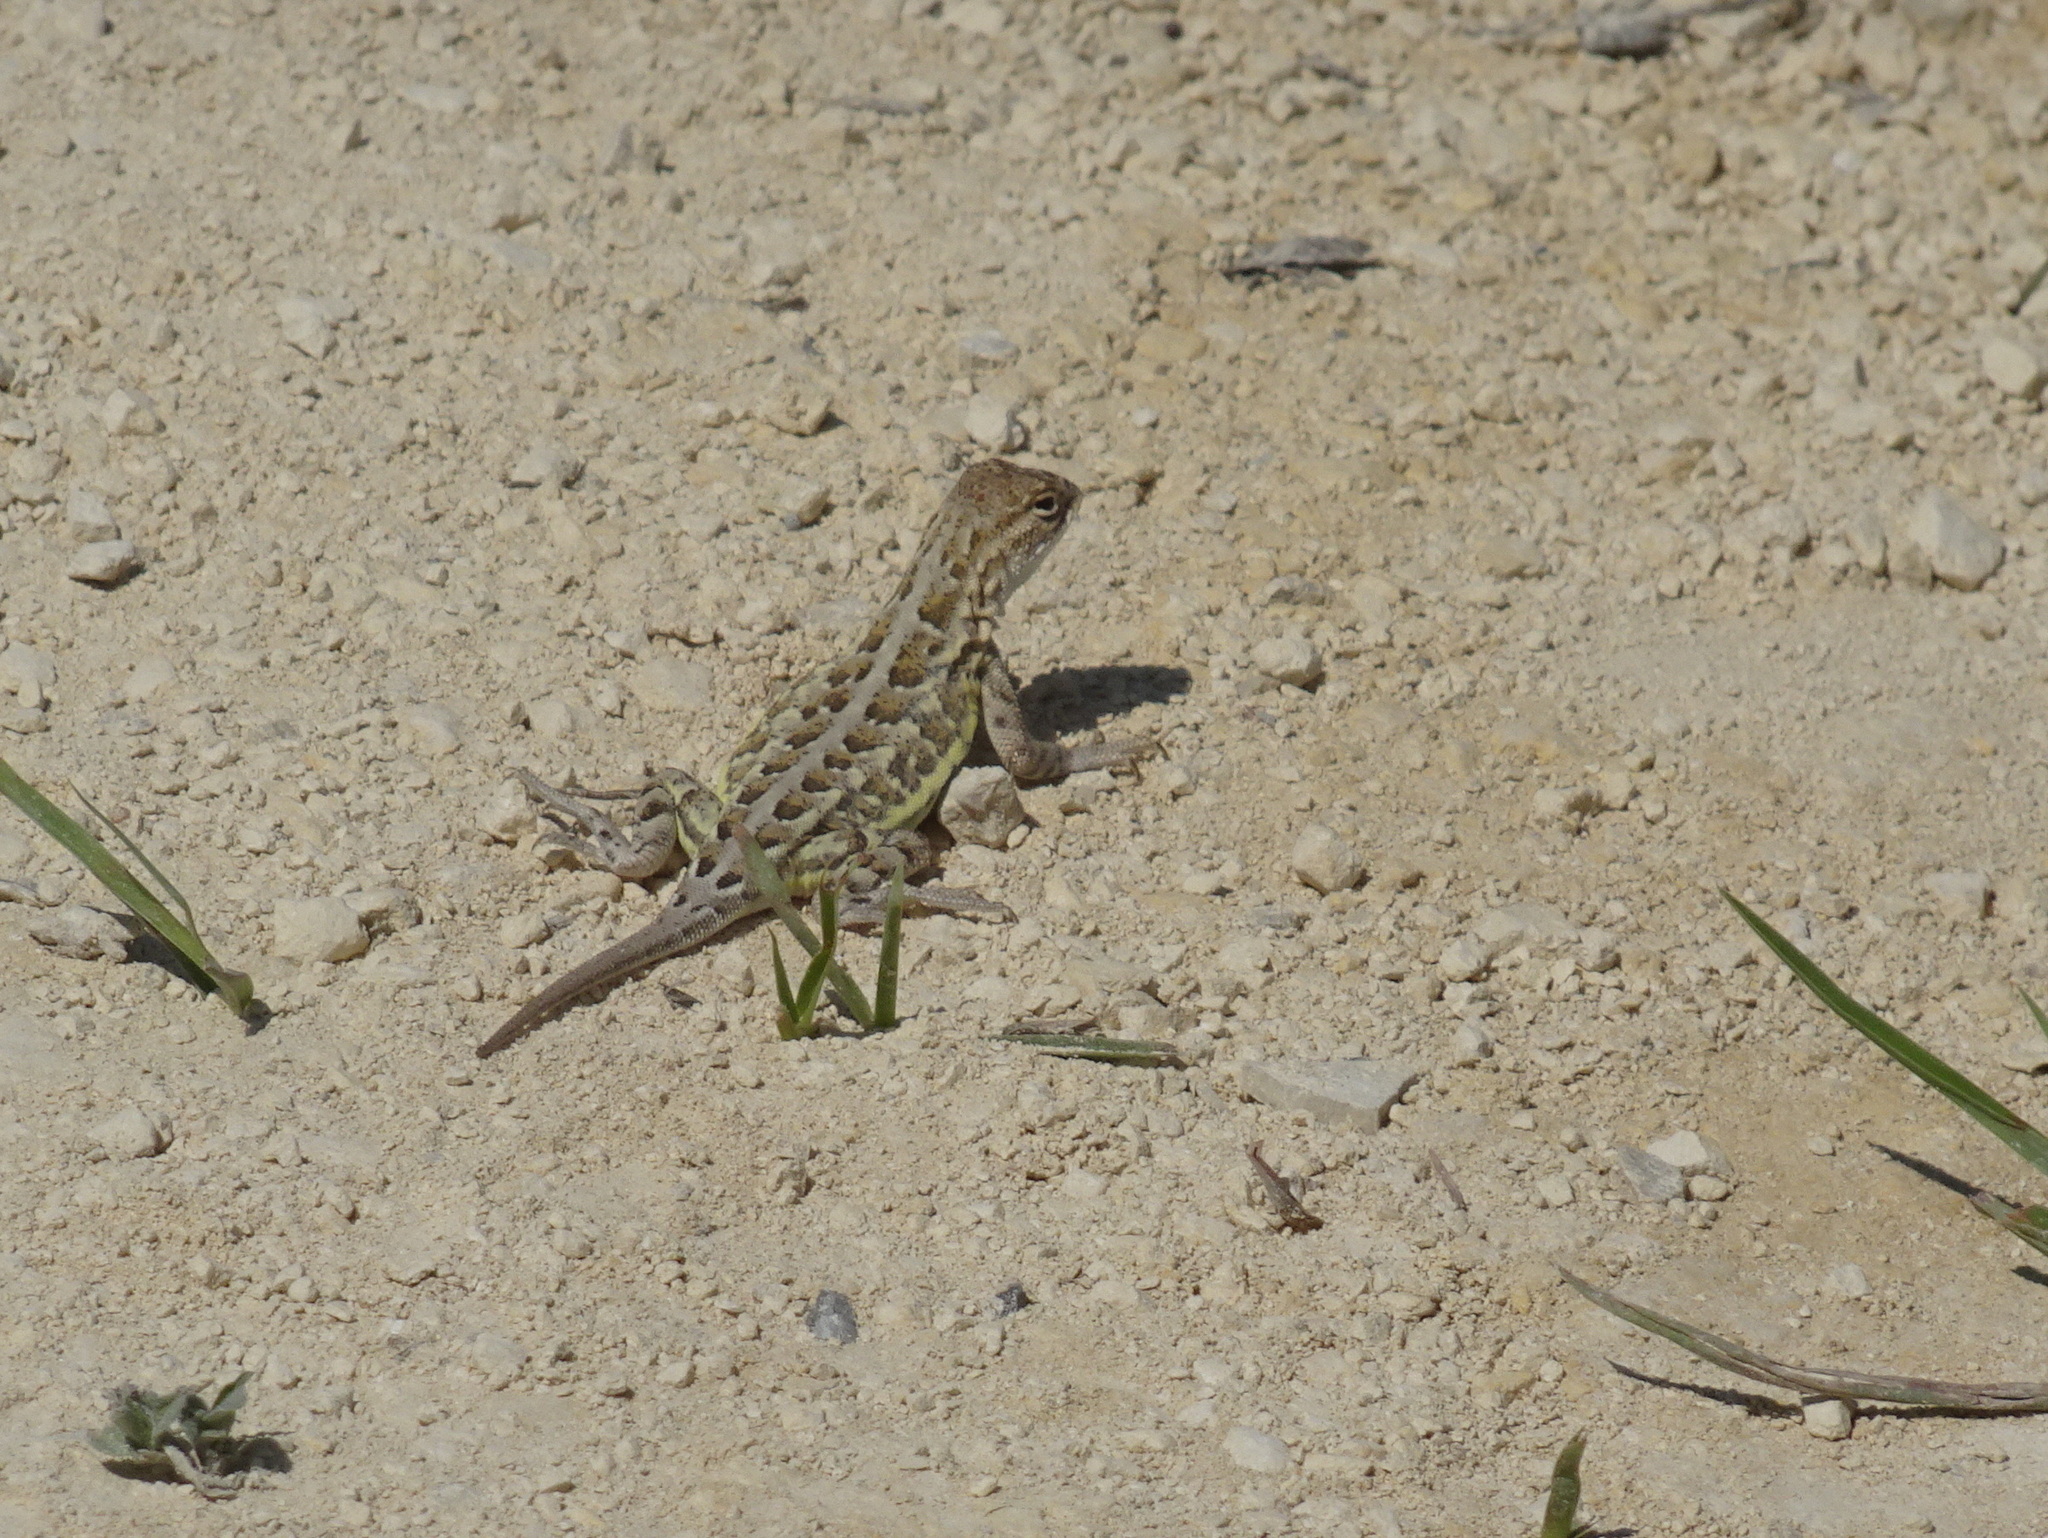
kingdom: Animalia
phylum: Chordata
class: Squamata
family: Phrynosomatidae
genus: Holbrookia
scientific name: Holbrookia maculata
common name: Lesser earless lizard
